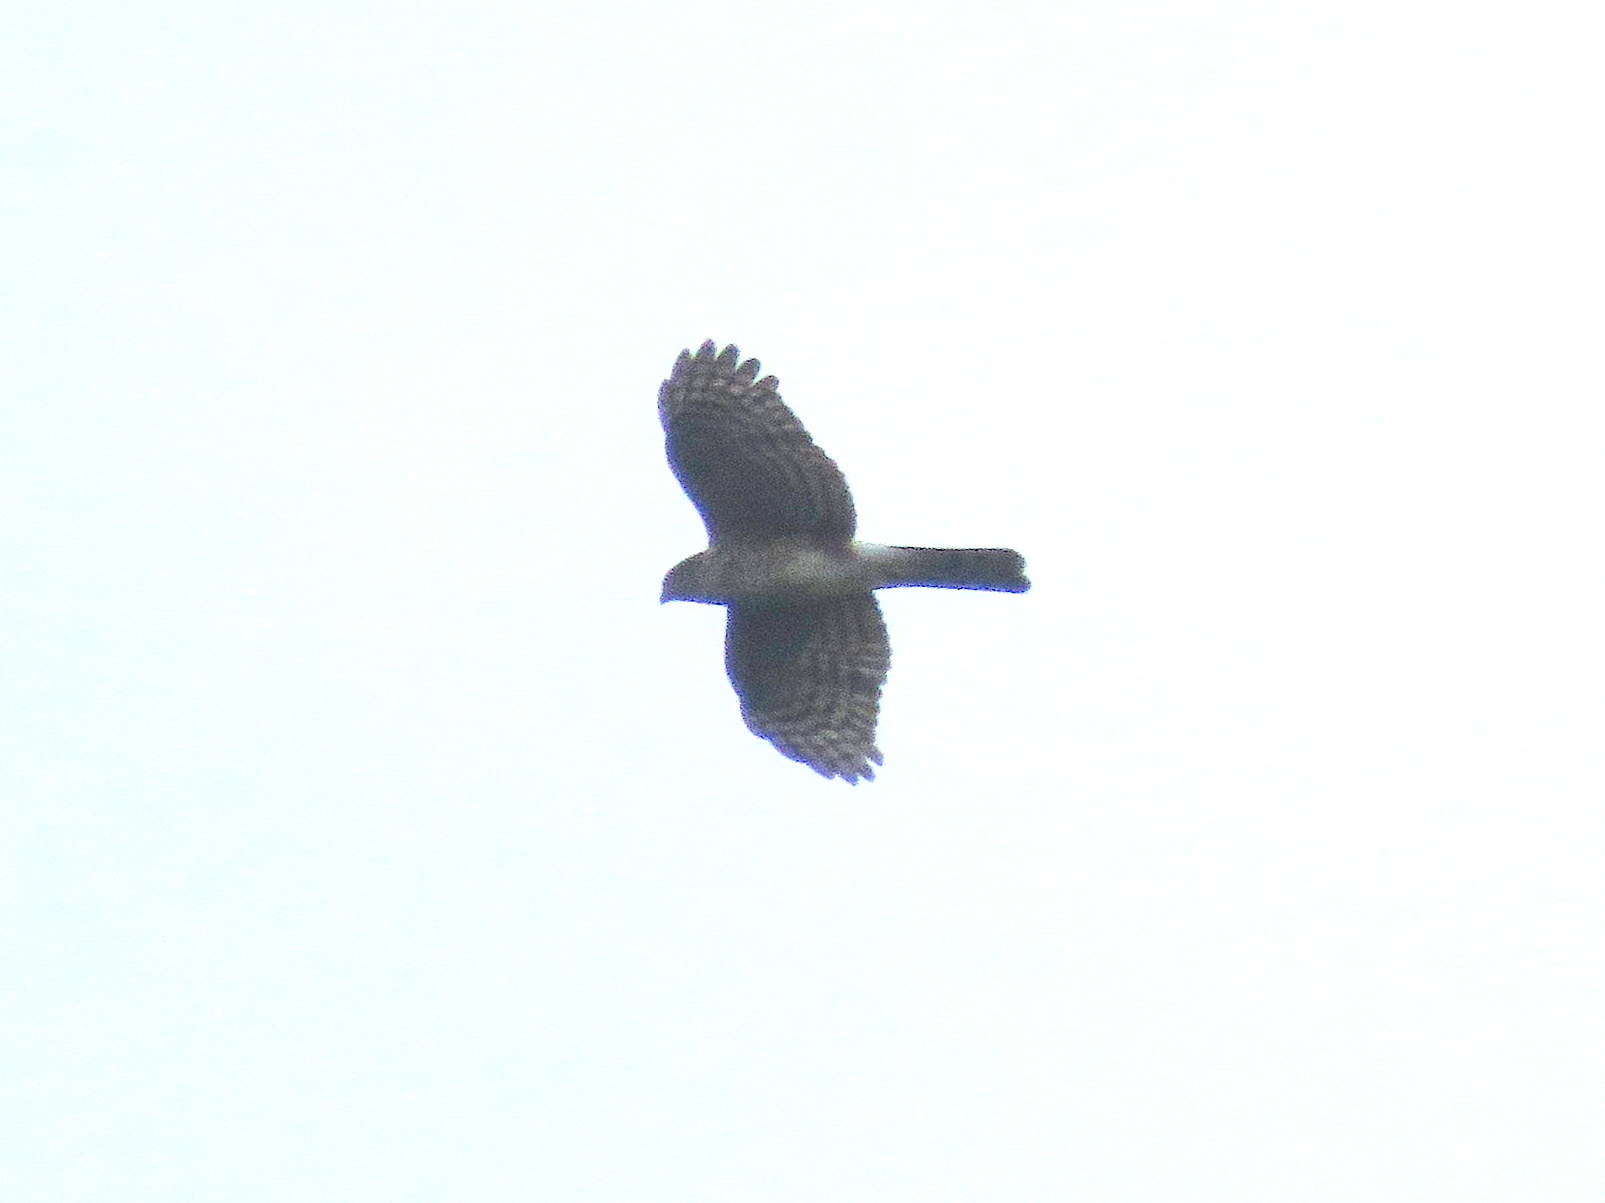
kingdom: Animalia
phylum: Chordata
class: Aves
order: Accipitriformes
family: Accipitridae
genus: Accipiter
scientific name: Accipiter striatus
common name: Sharp-shinned hawk
